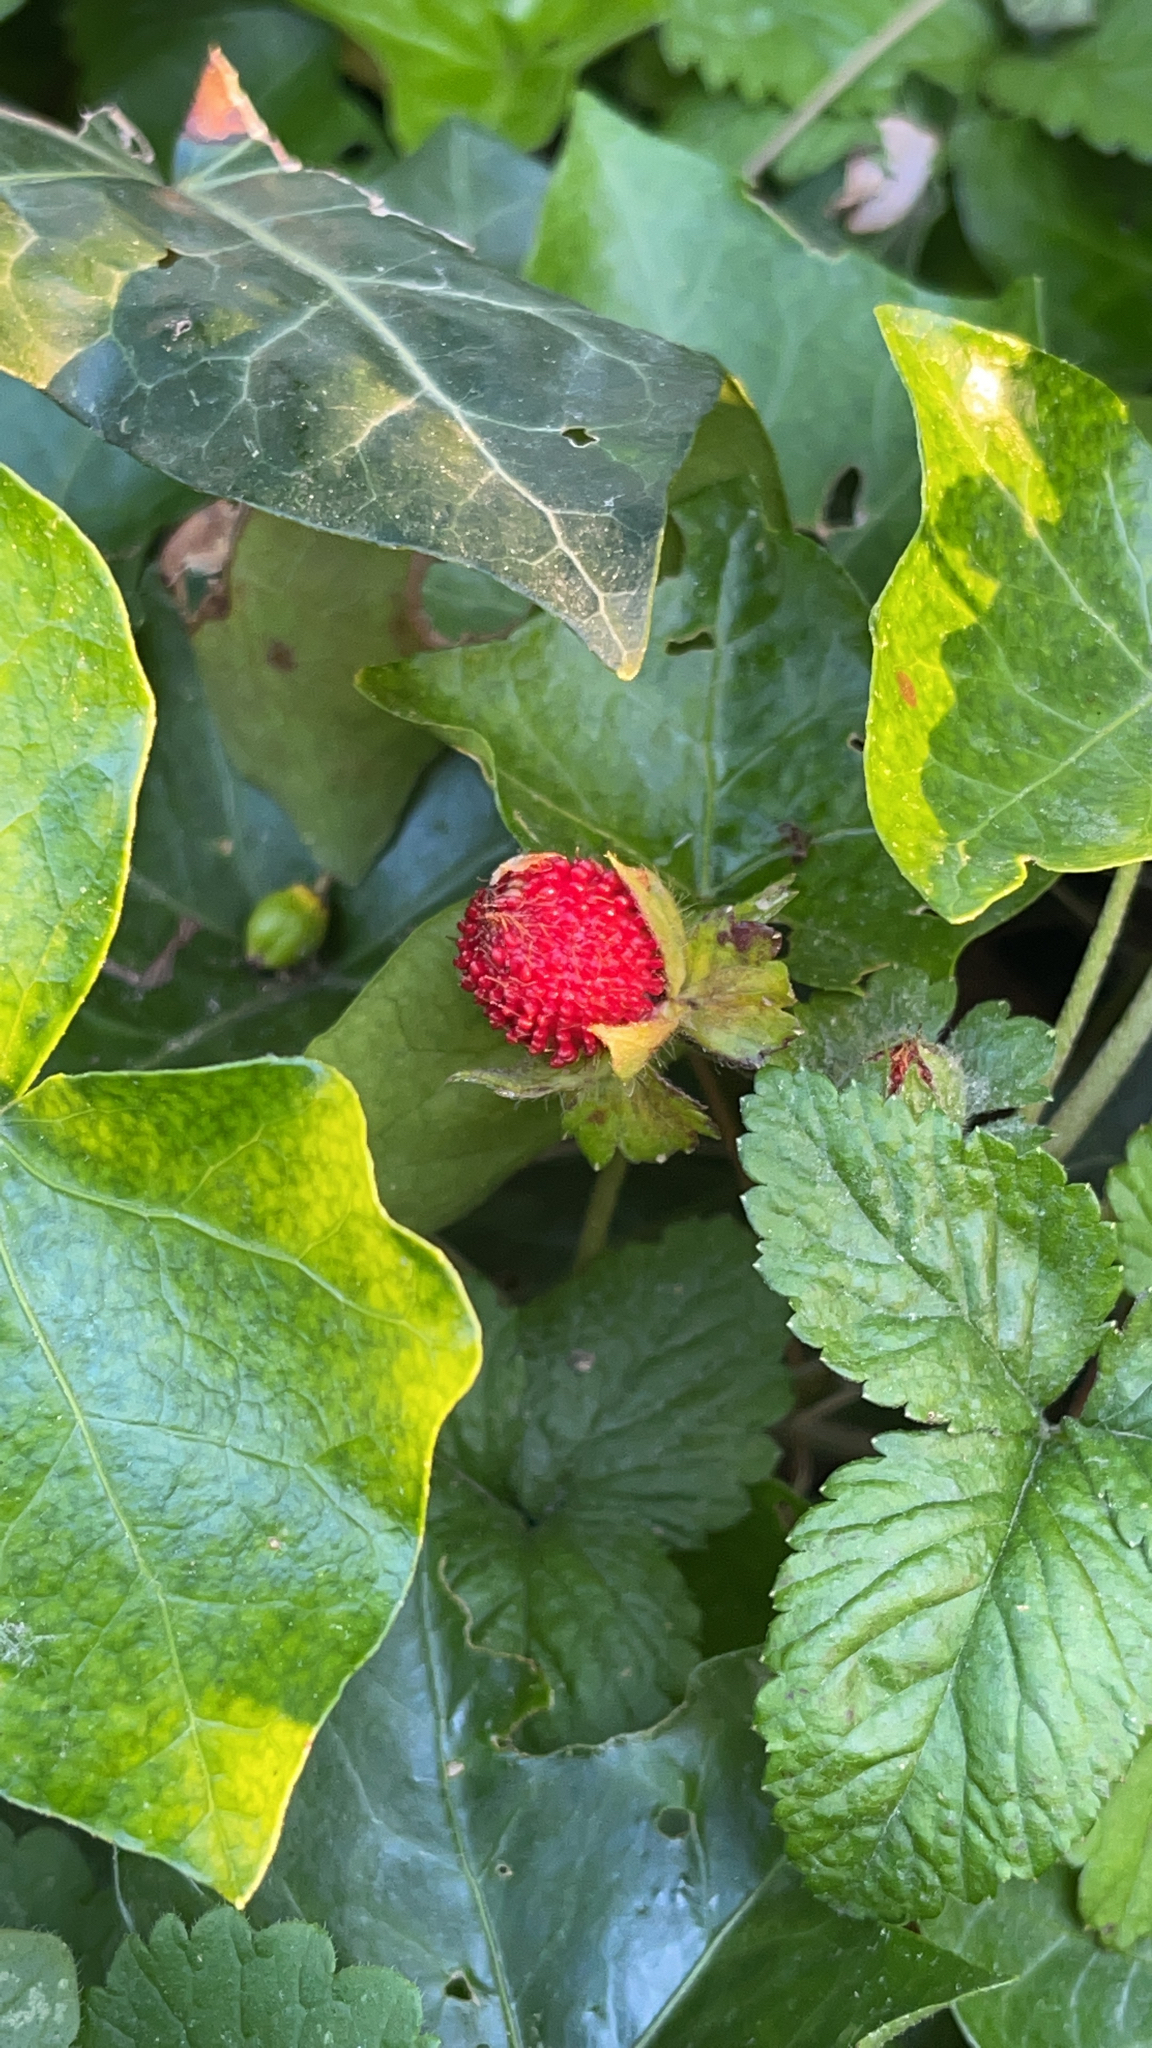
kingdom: Plantae
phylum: Tracheophyta
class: Magnoliopsida
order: Rosales
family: Rosaceae
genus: Potentilla
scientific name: Potentilla indica
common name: Yellow-flowered strawberry
